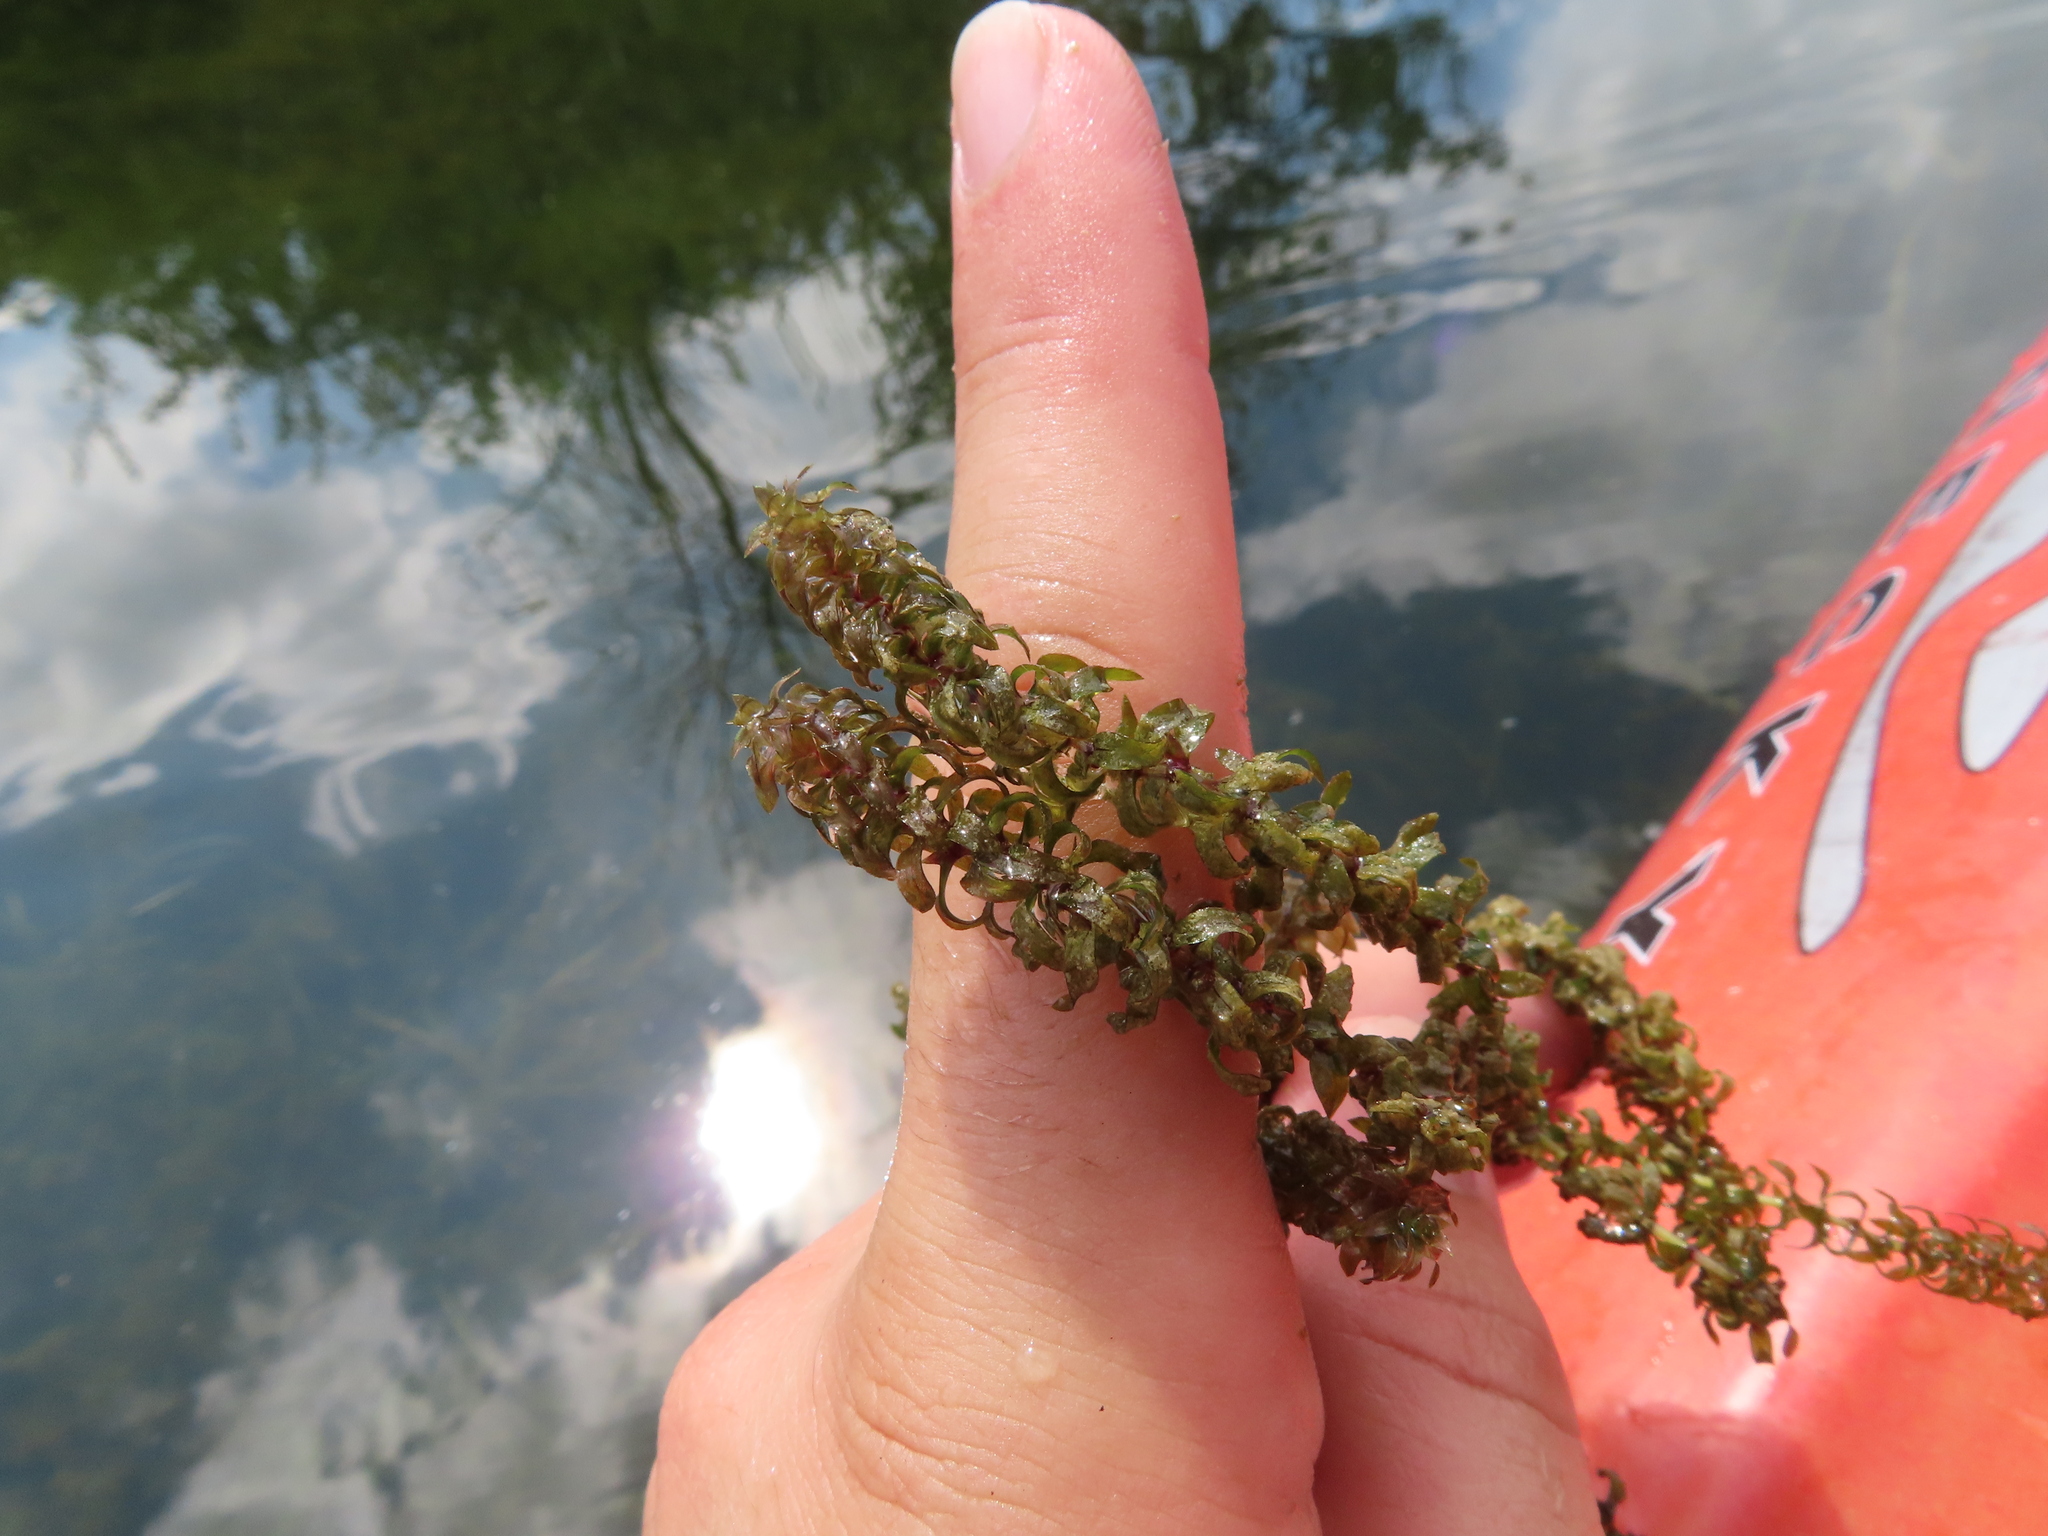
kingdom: Plantae
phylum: Tracheophyta
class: Liliopsida
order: Alismatales
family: Hydrocharitaceae
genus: Elodea
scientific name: Elodea canadensis
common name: Canadian waterweed
